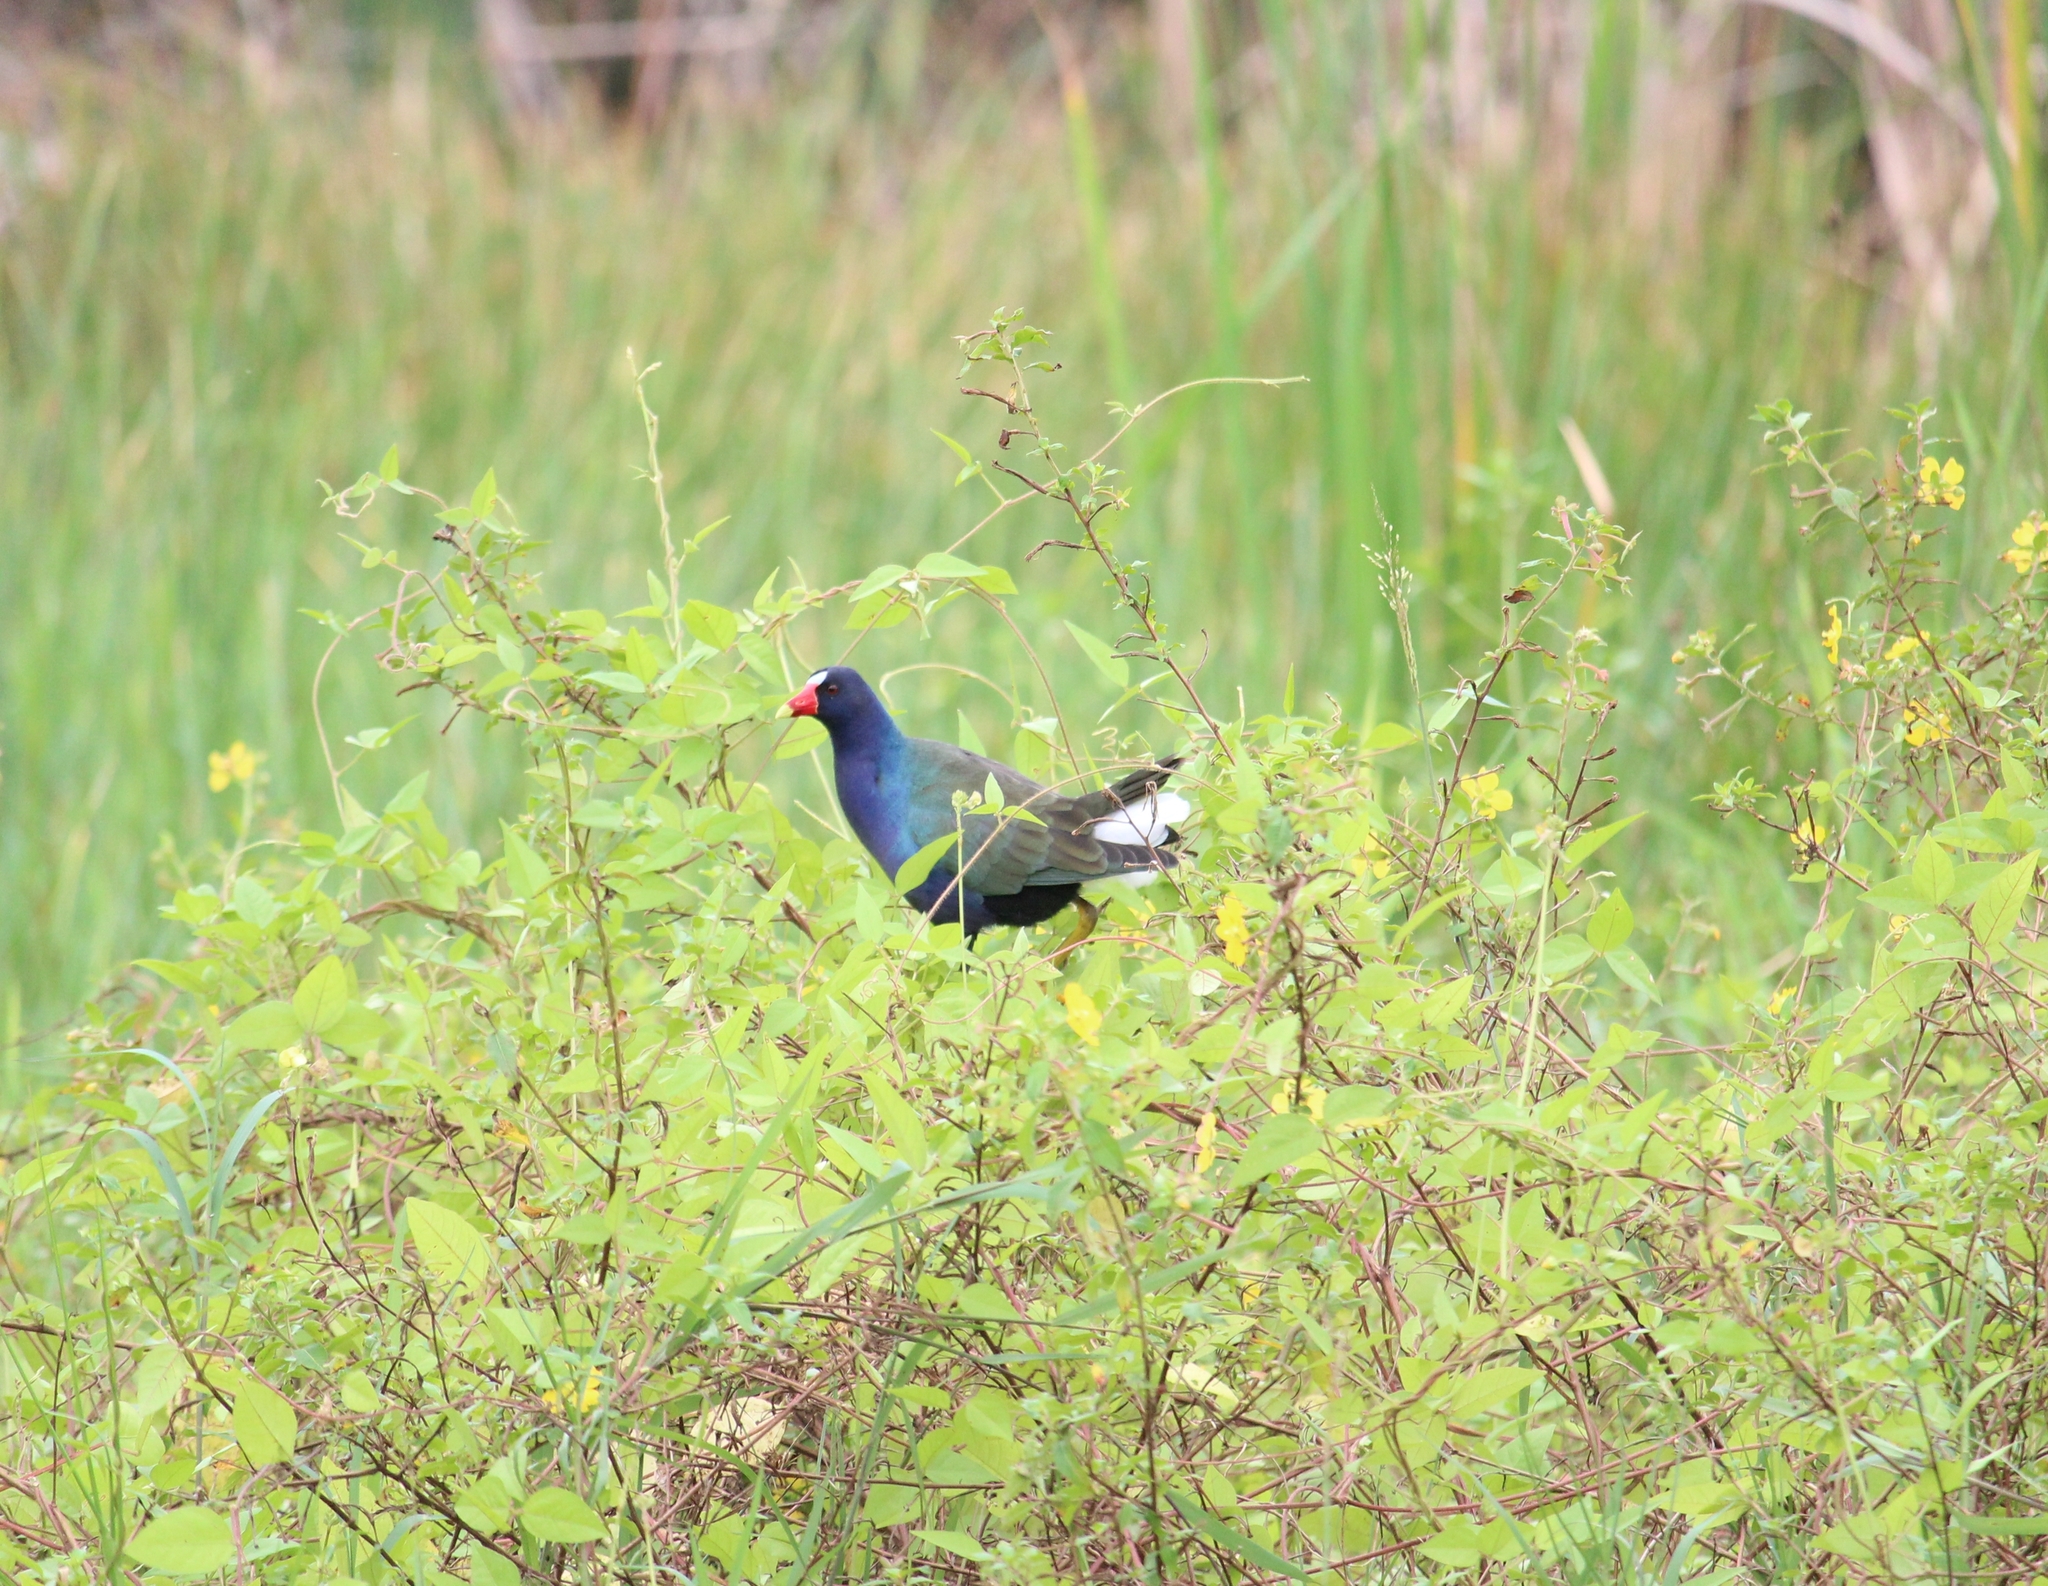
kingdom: Animalia
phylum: Chordata
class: Aves
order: Gruiformes
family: Rallidae
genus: Porphyrio
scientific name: Porphyrio martinica
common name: Purple gallinule
